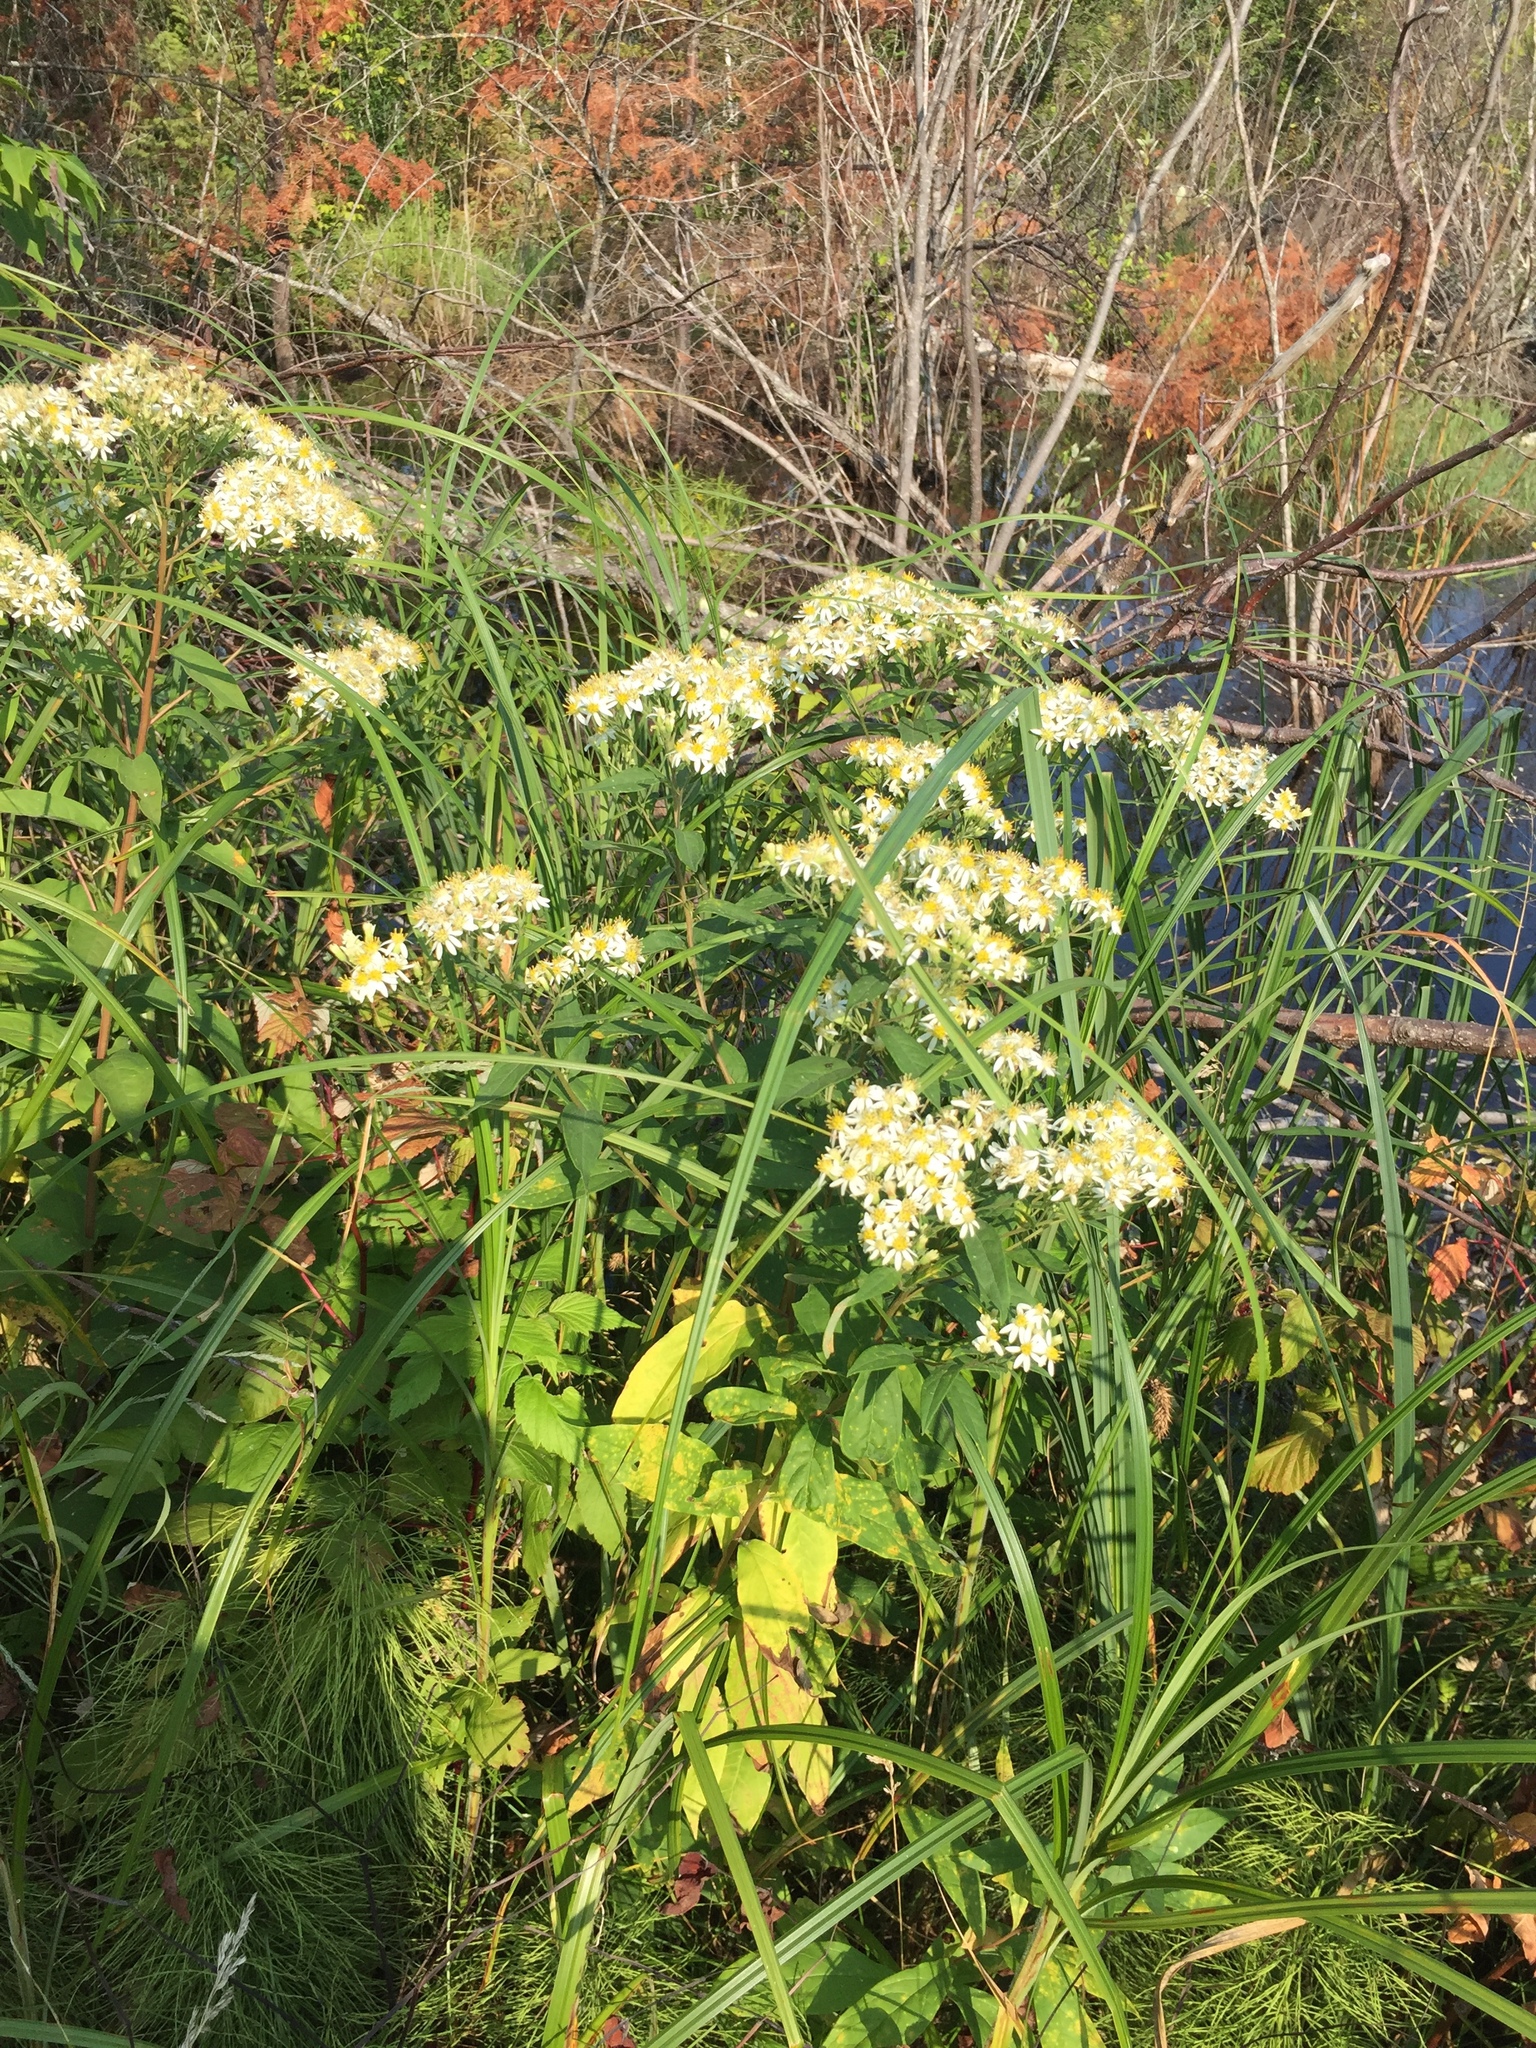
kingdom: Plantae
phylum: Tracheophyta
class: Magnoliopsida
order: Asterales
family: Asteraceae
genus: Doellingeria
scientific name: Doellingeria umbellata
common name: Flat-top white aster
